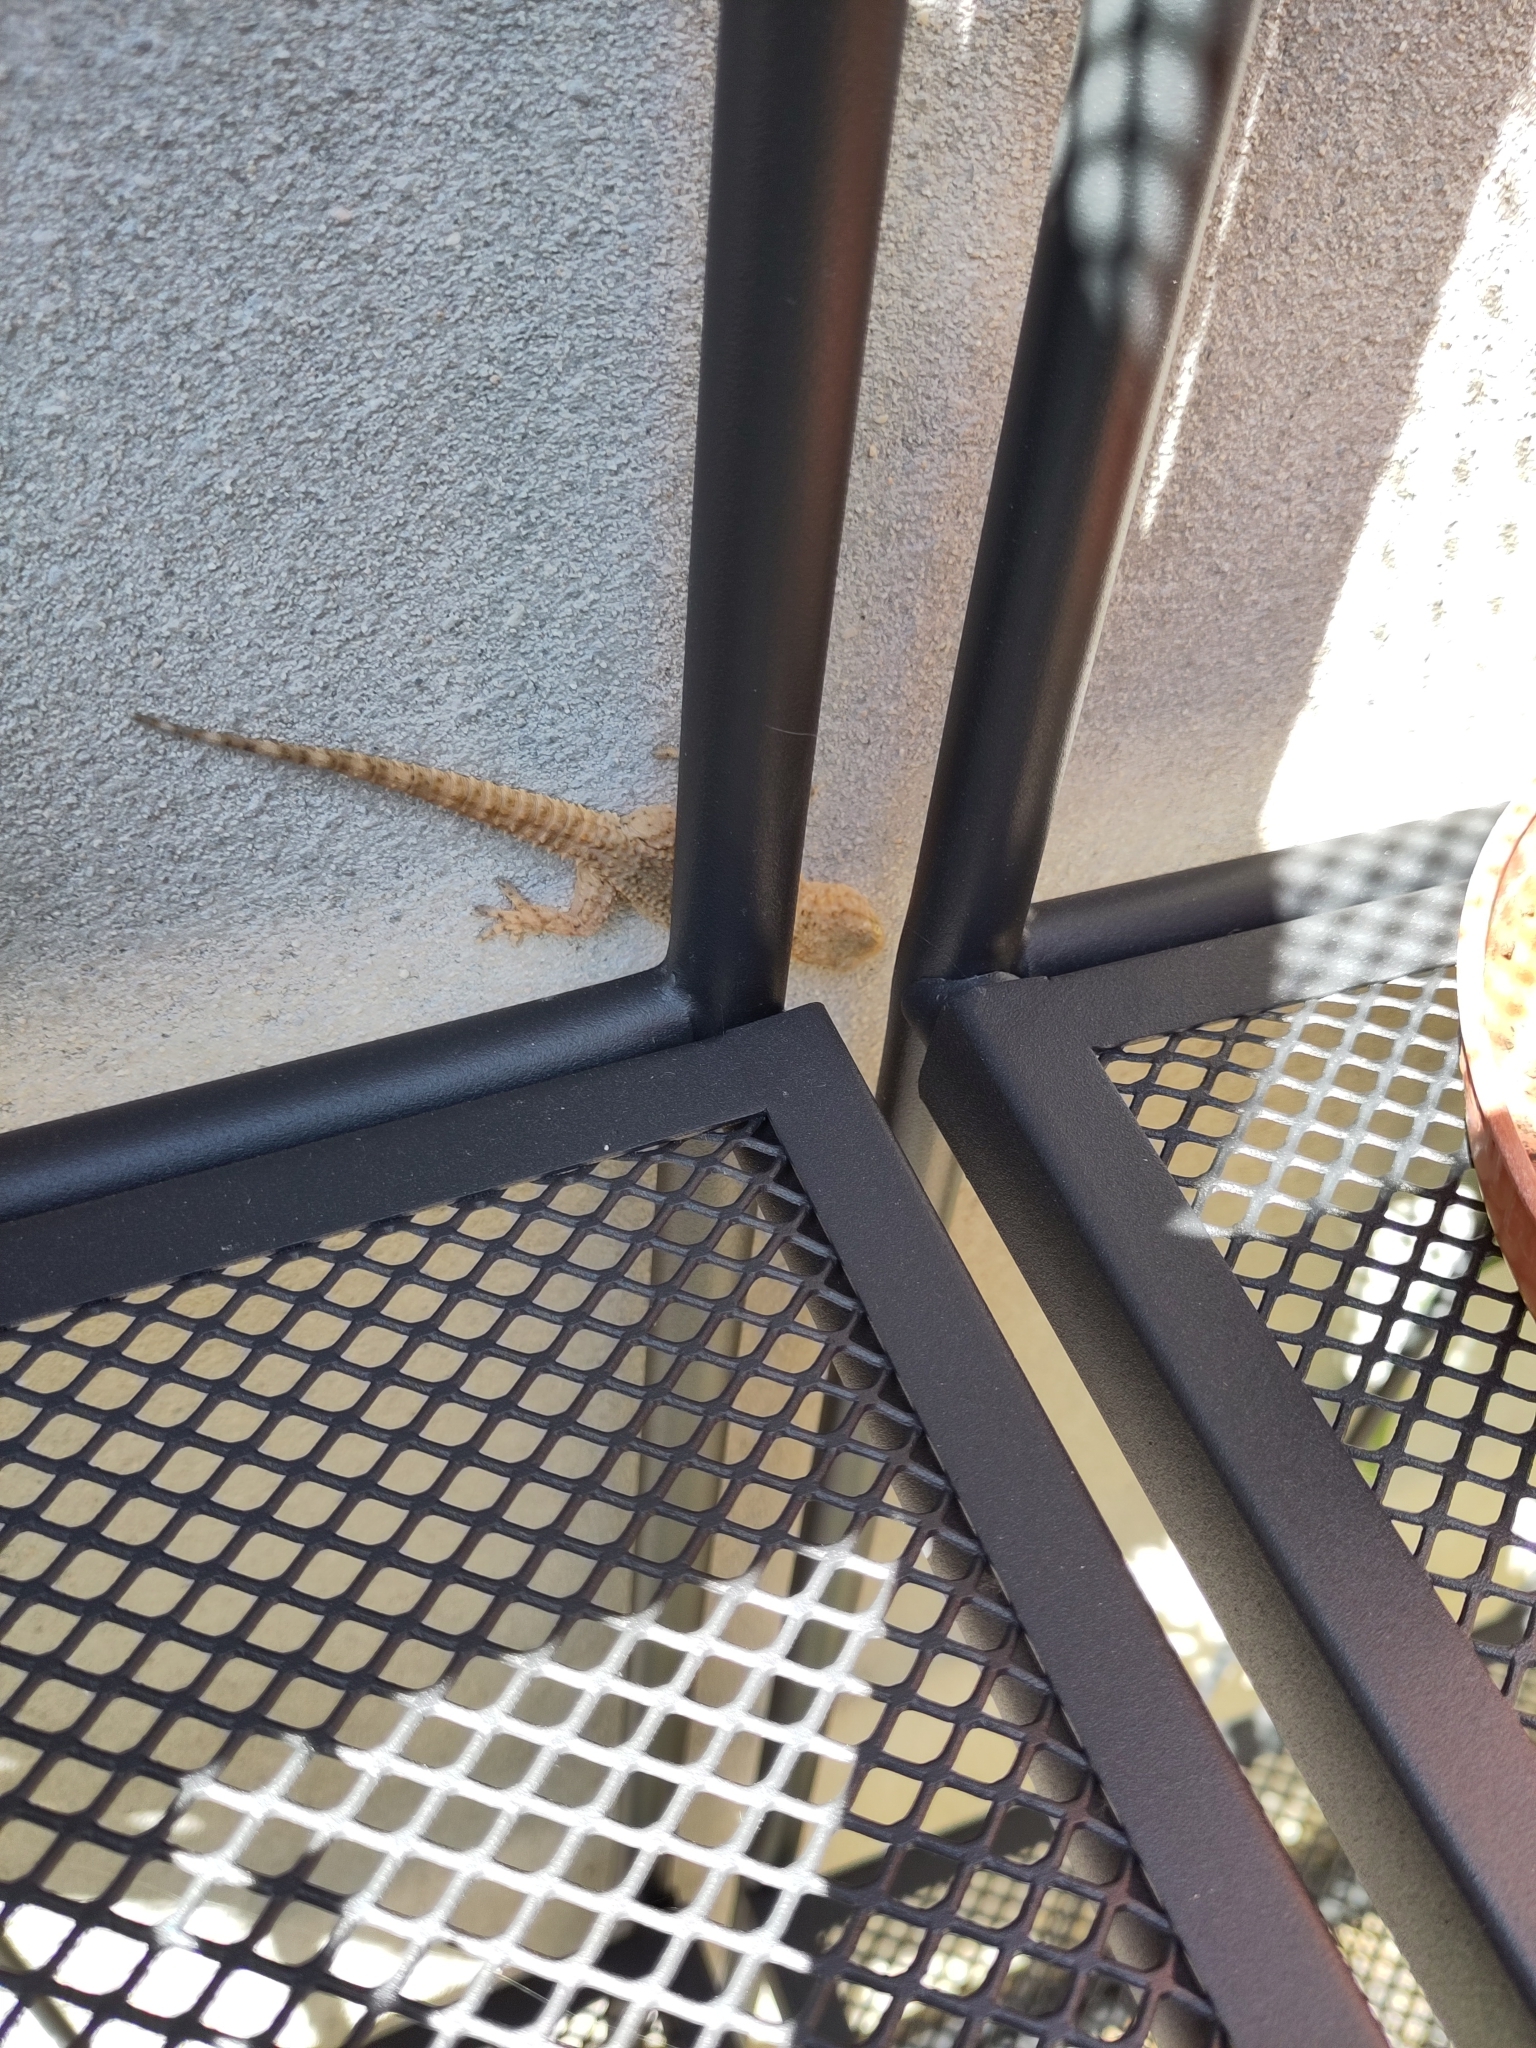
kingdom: Animalia
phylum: Chordata
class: Squamata
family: Phyllodactylidae
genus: Tarentola
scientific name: Tarentola mauritanica
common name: Moorish gecko
